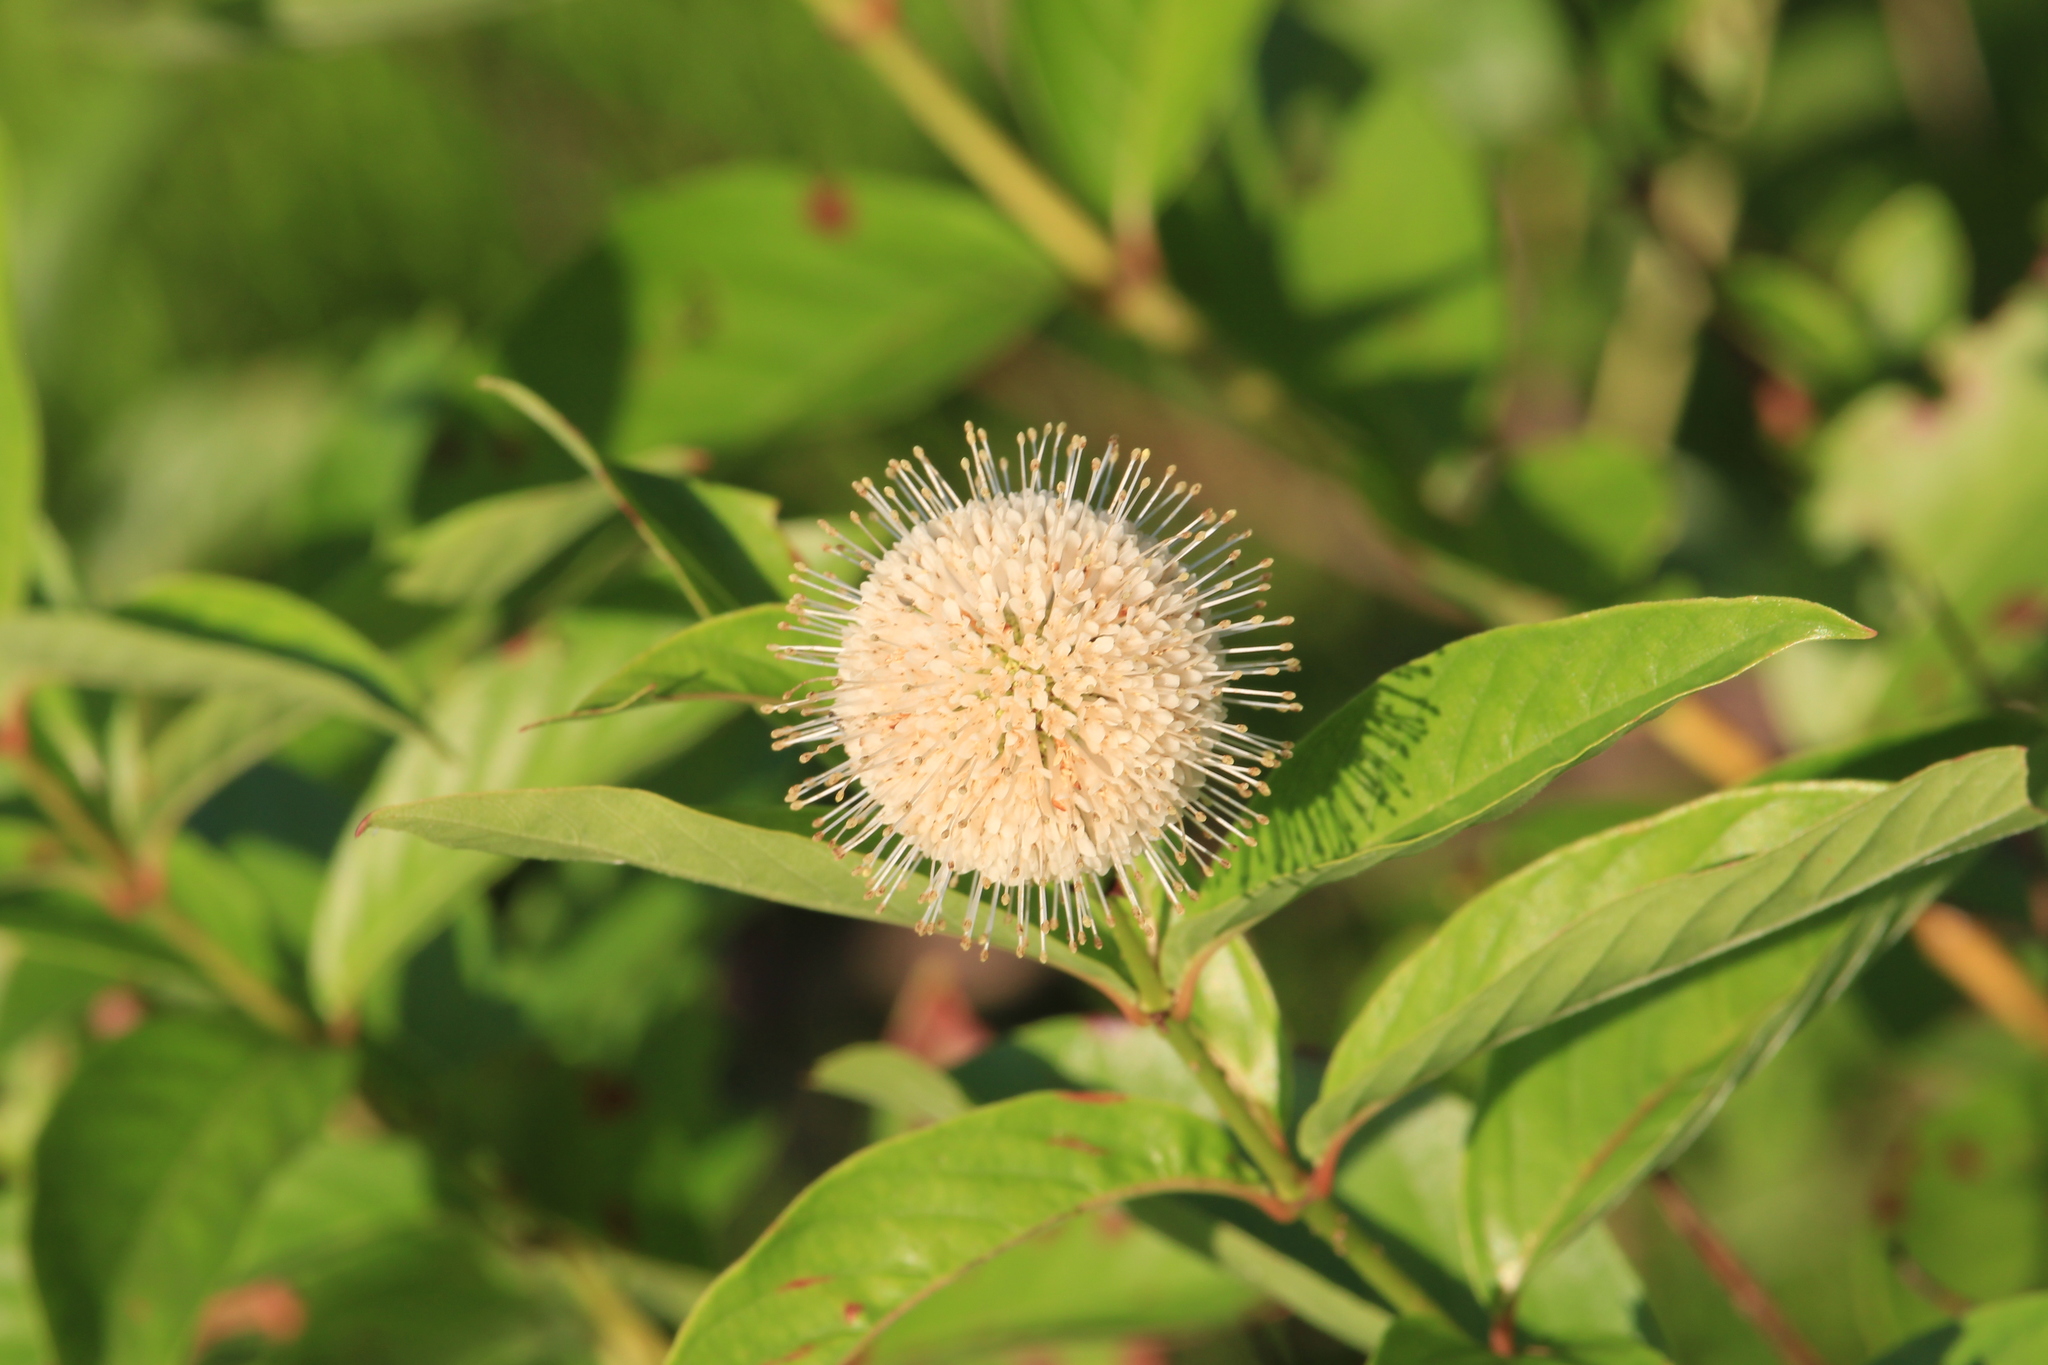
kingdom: Plantae
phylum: Tracheophyta
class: Magnoliopsida
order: Gentianales
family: Rubiaceae
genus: Cephalanthus
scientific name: Cephalanthus occidentalis
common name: Button-willow
